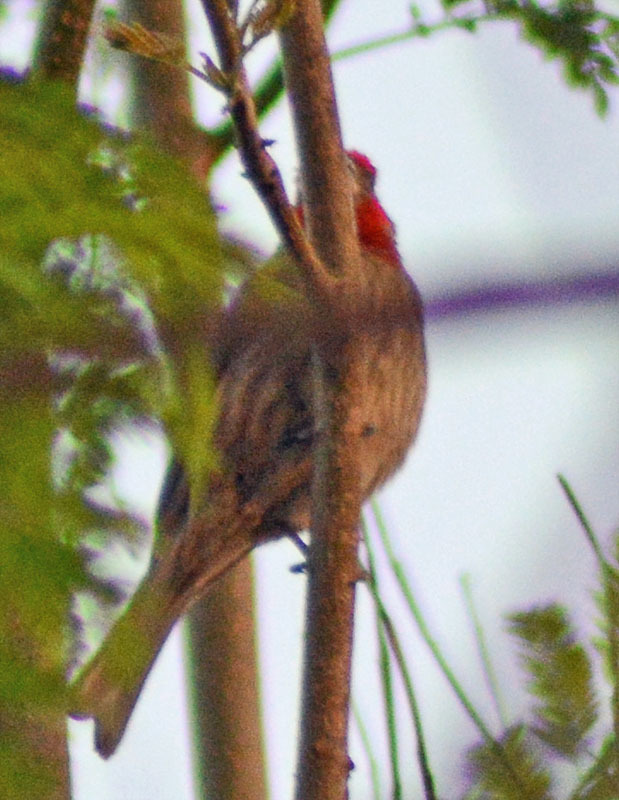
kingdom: Animalia
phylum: Chordata
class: Aves
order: Passeriformes
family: Fringillidae
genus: Haemorhous
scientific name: Haemorhous mexicanus
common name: House finch
